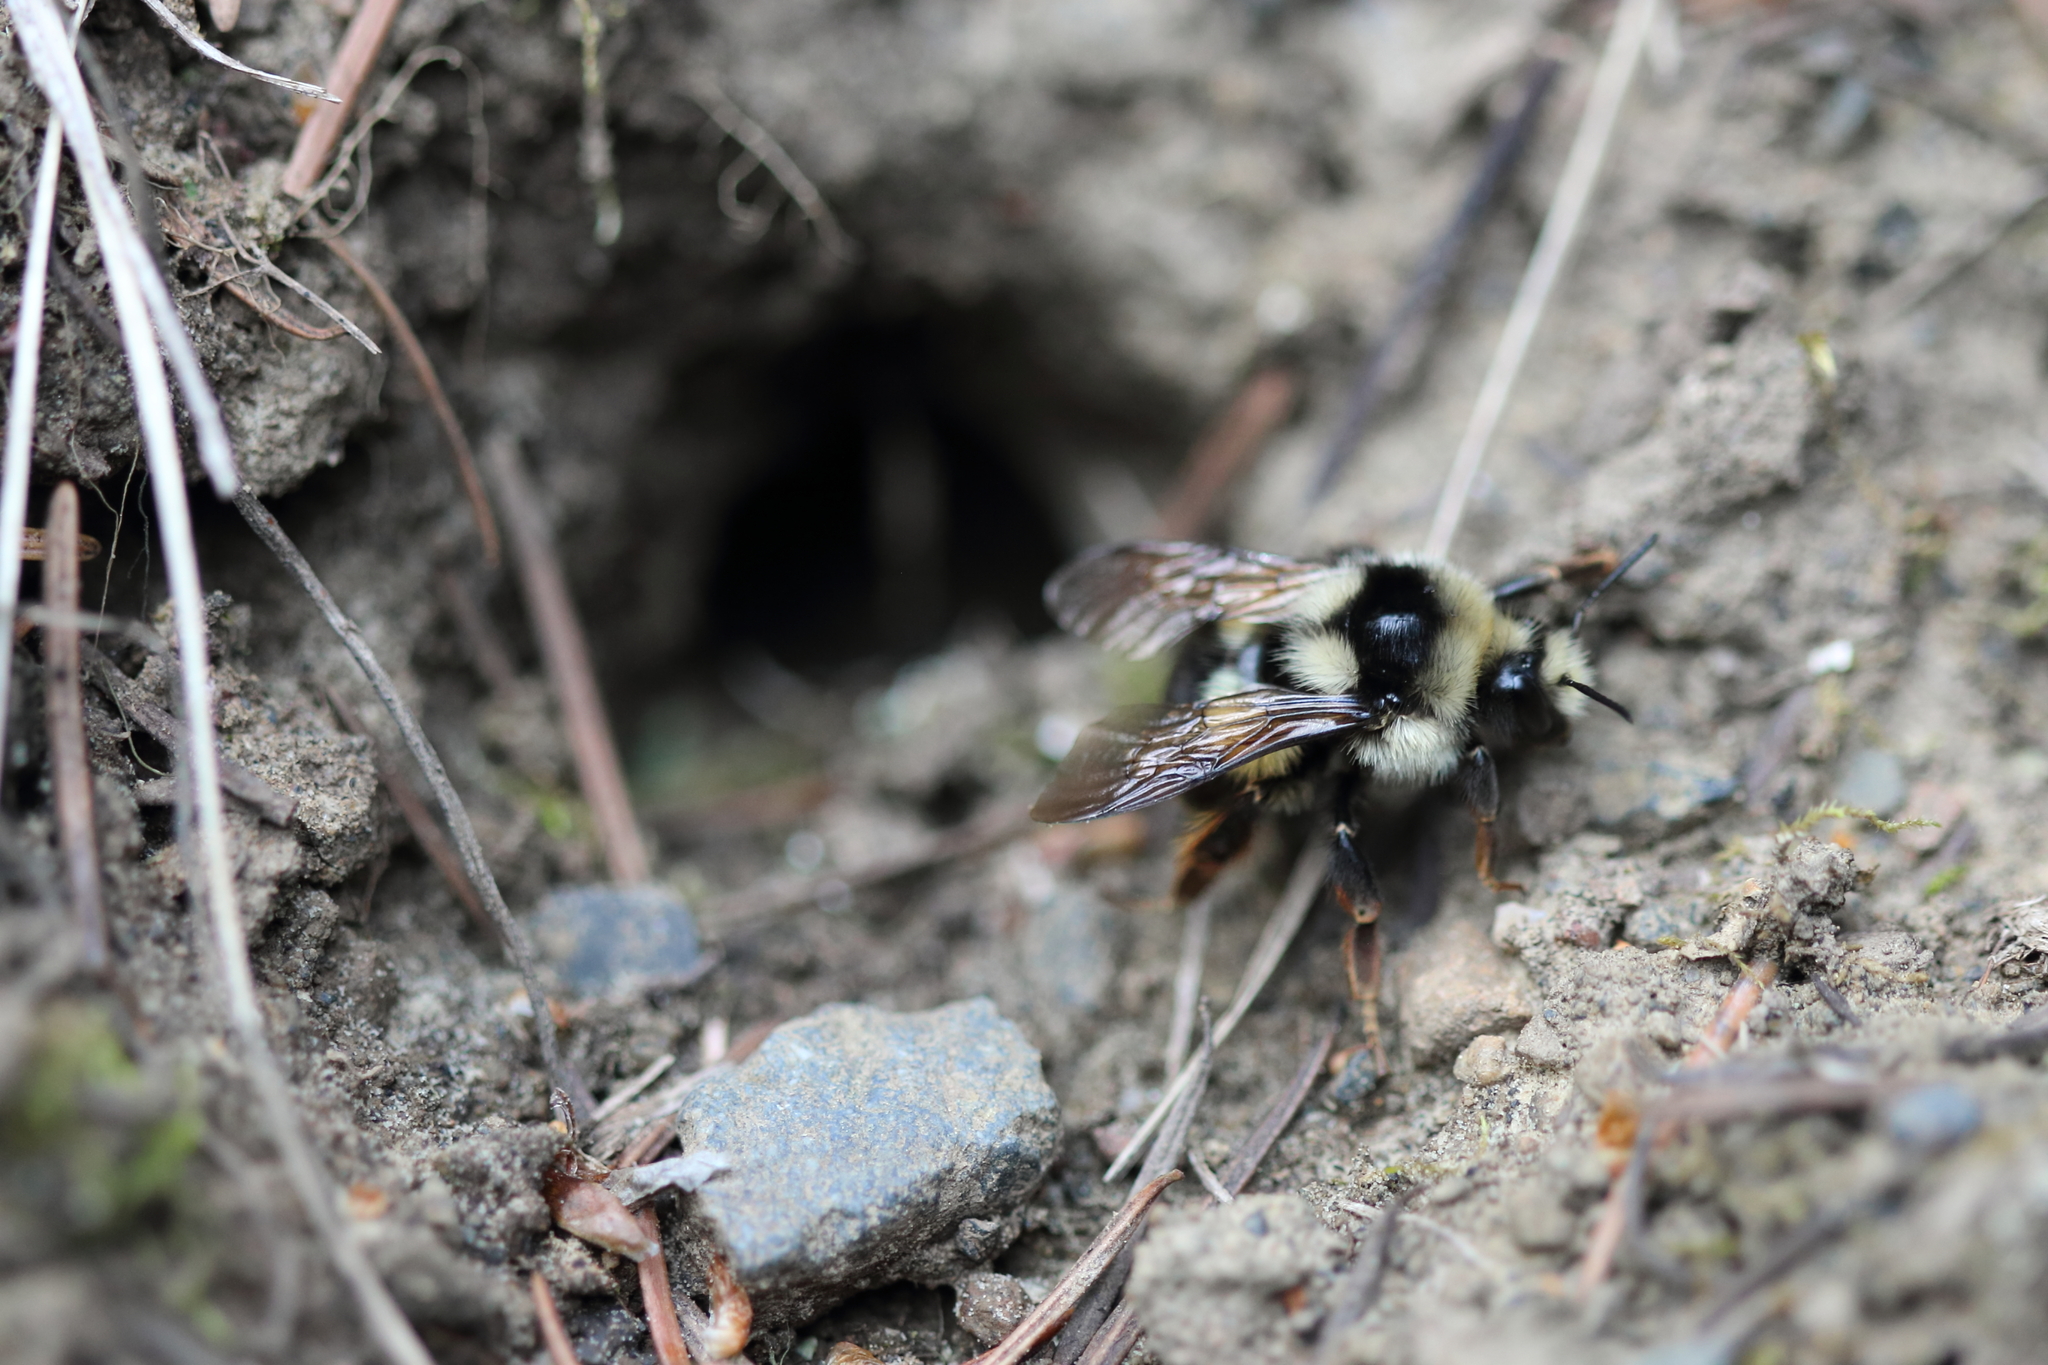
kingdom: Animalia
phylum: Arthropoda
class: Insecta
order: Hymenoptera
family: Apidae
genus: Bombus
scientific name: Bombus vancouverensis
